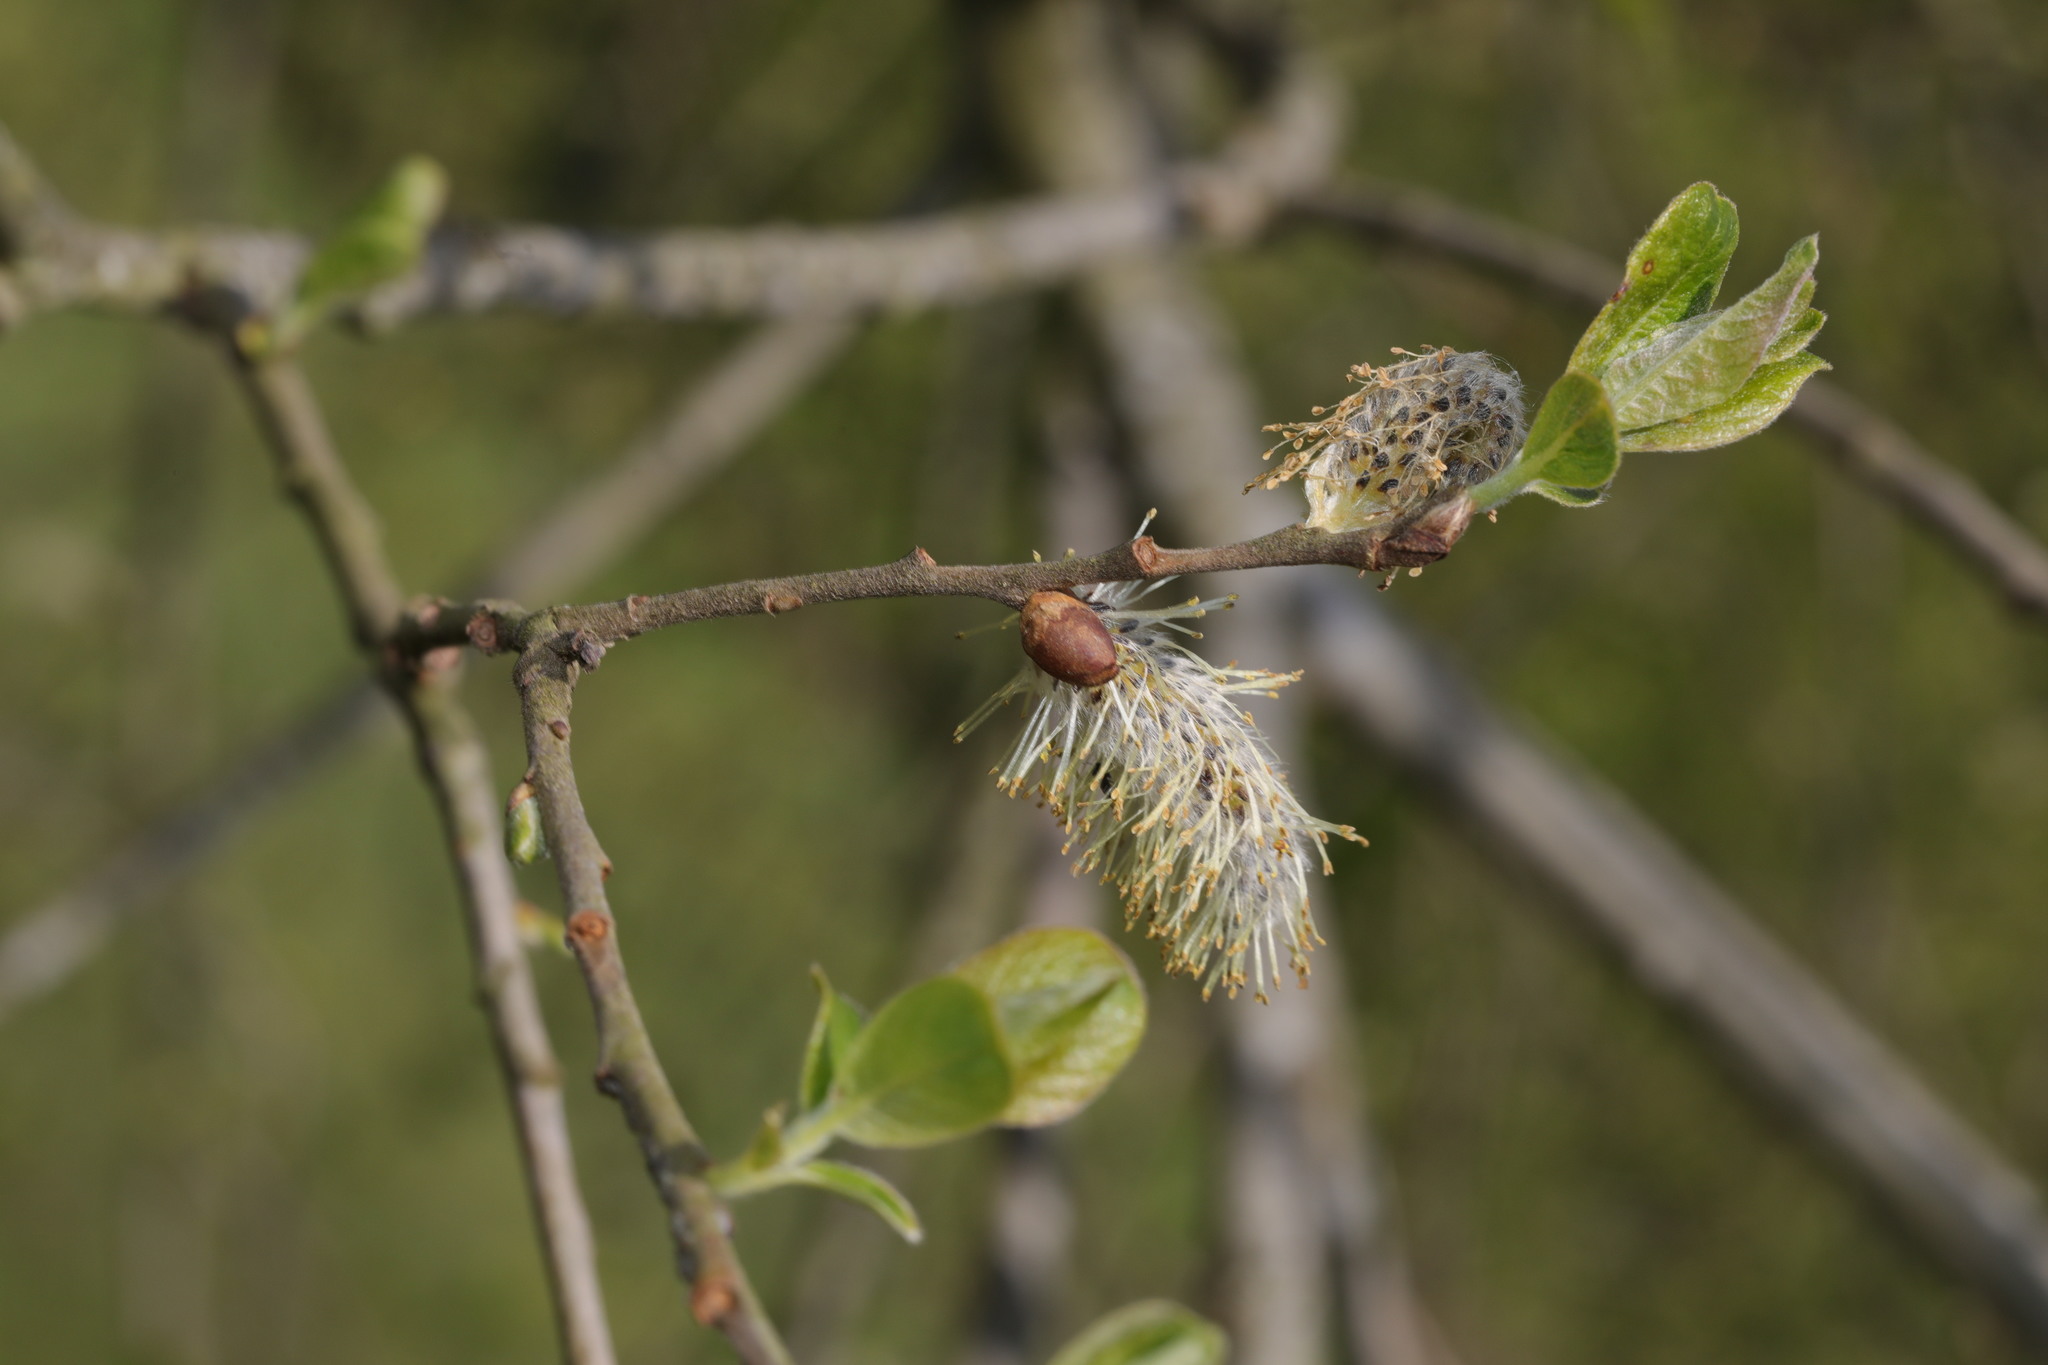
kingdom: Plantae
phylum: Tracheophyta
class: Magnoliopsida
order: Malpighiales
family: Salicaceae
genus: Salix
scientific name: Salix caprea
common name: Goat willow
